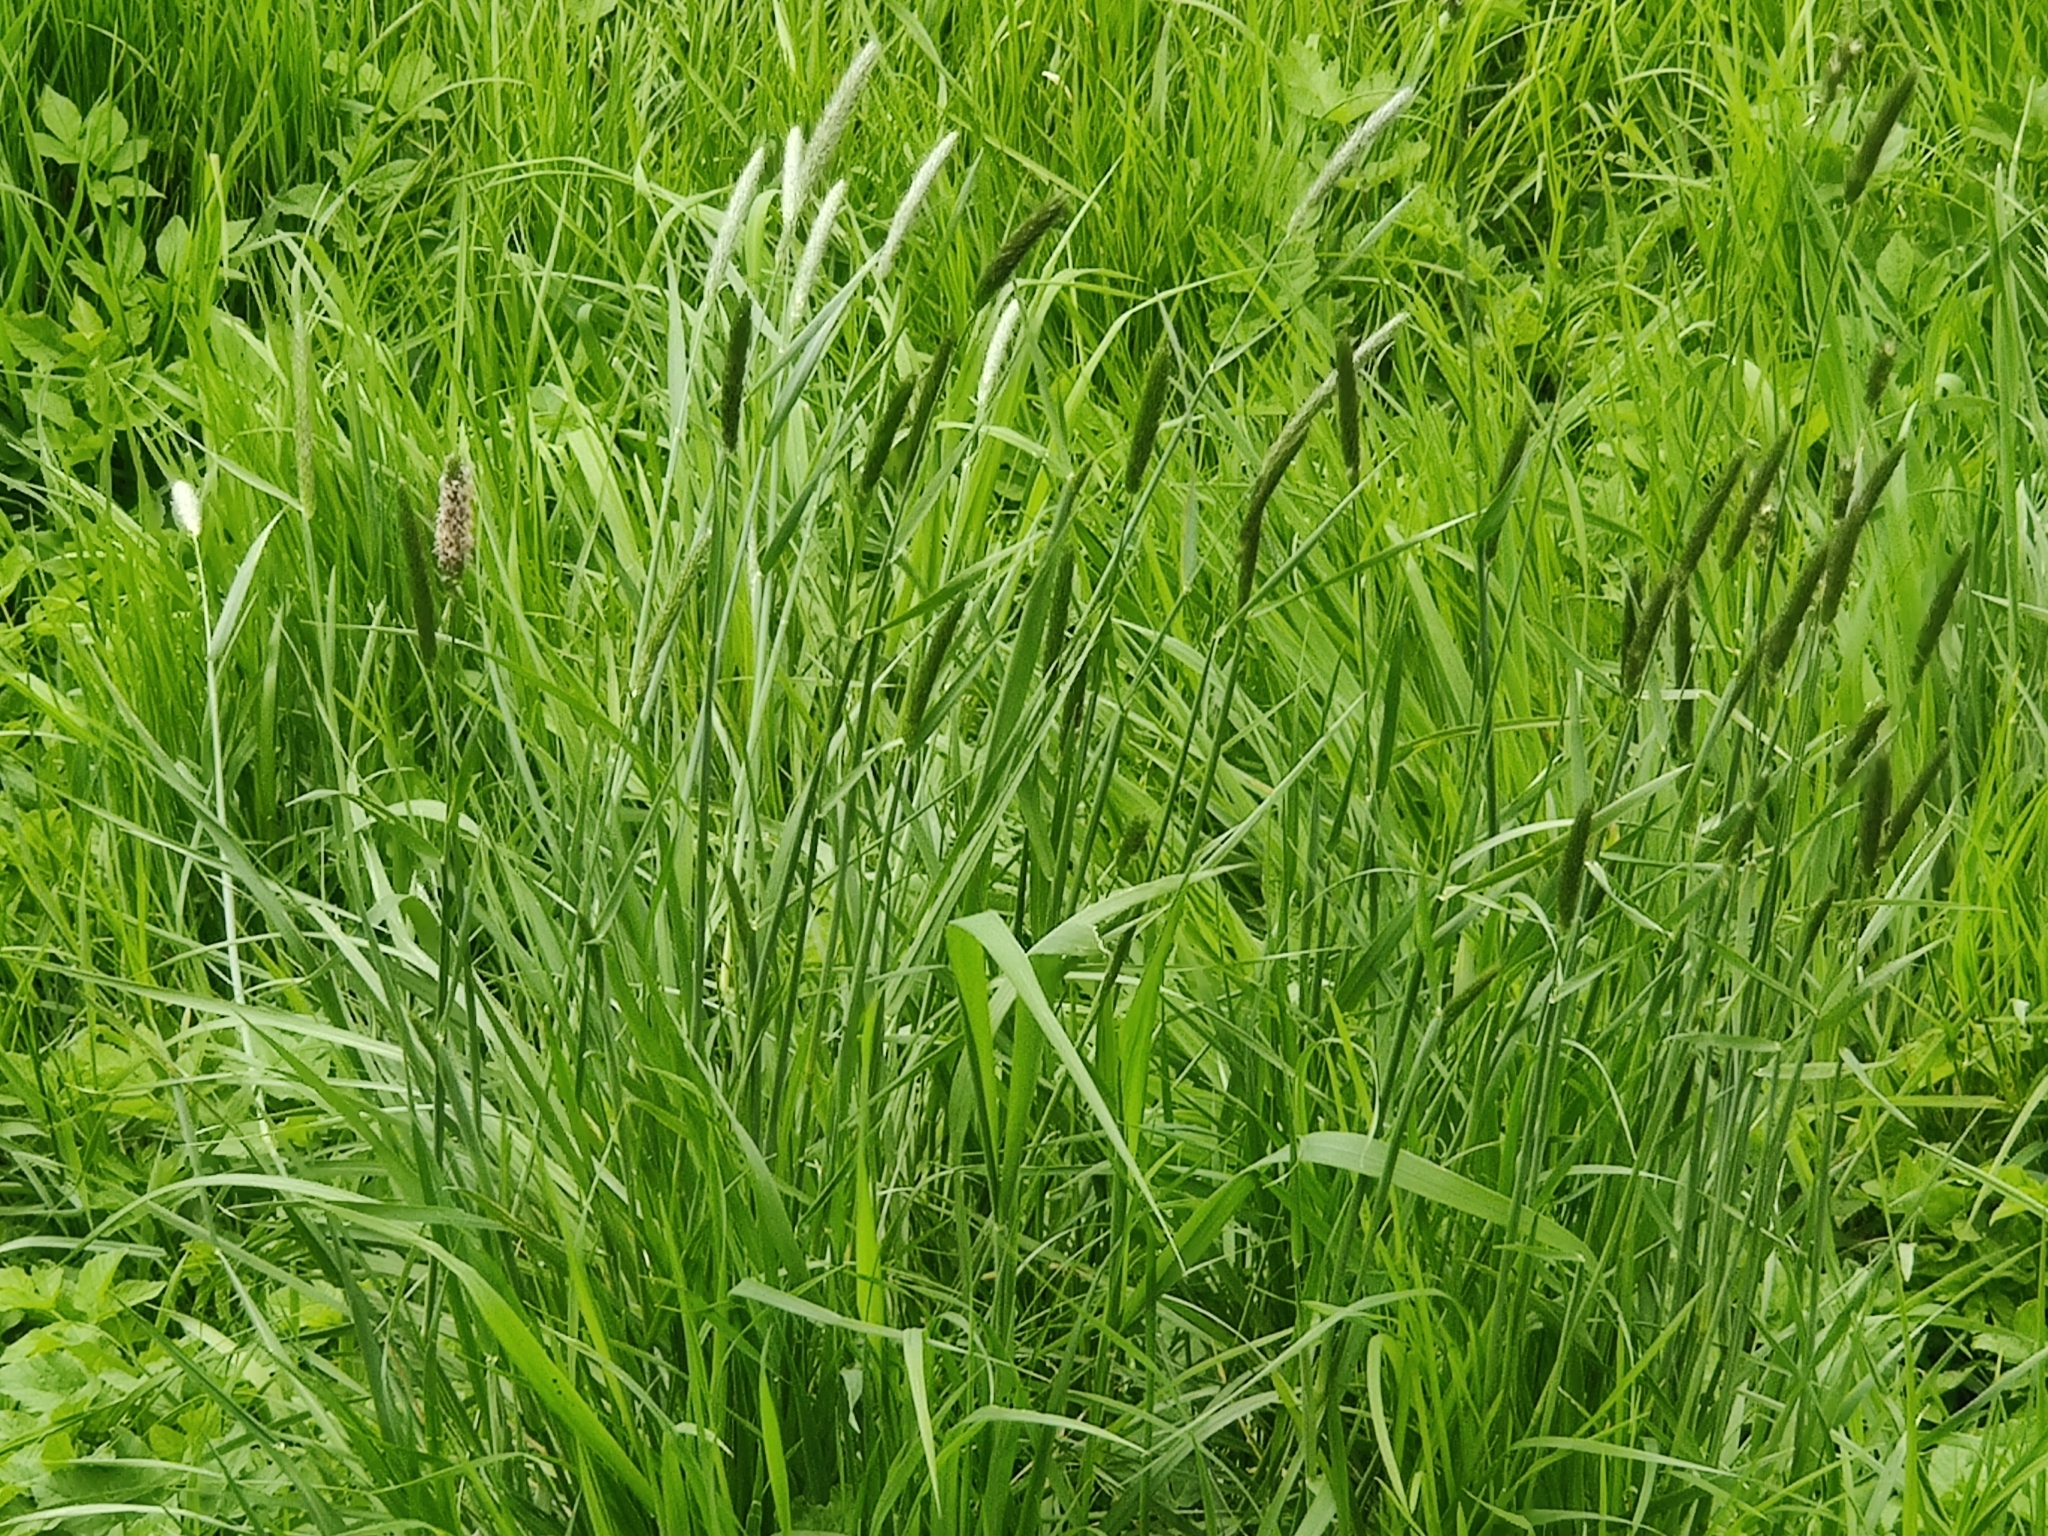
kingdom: Plantae
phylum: Tracheophyta
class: Liliopsida
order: Poales
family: Poaceae
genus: Alopecurus
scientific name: Alopecurus pratensis
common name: Meadow foxtail
